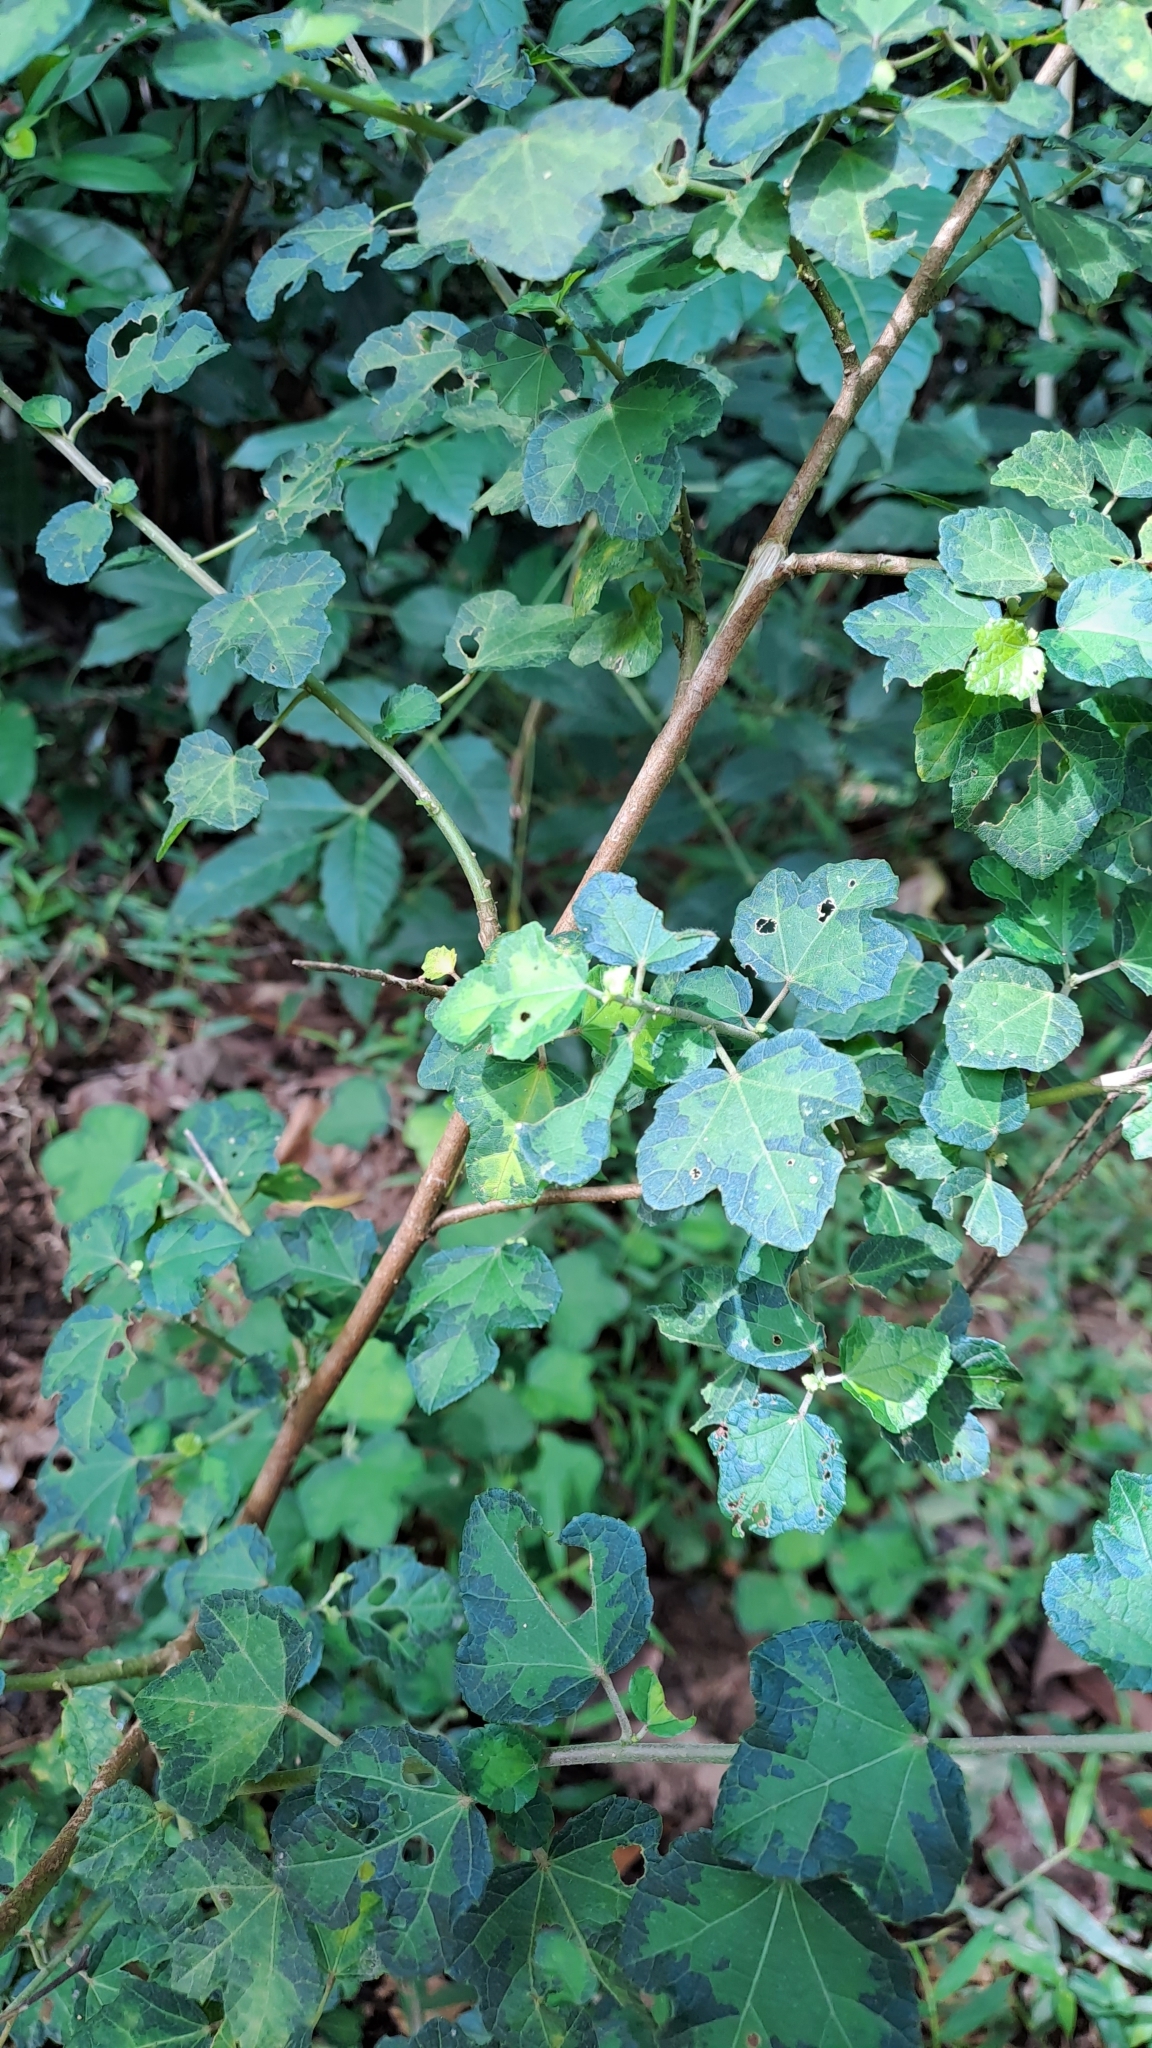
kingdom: Plantae
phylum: Tracheophyta
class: Magnoliopsida
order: Malvales
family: Malvaceae
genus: Urena
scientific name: Urena procumbens
